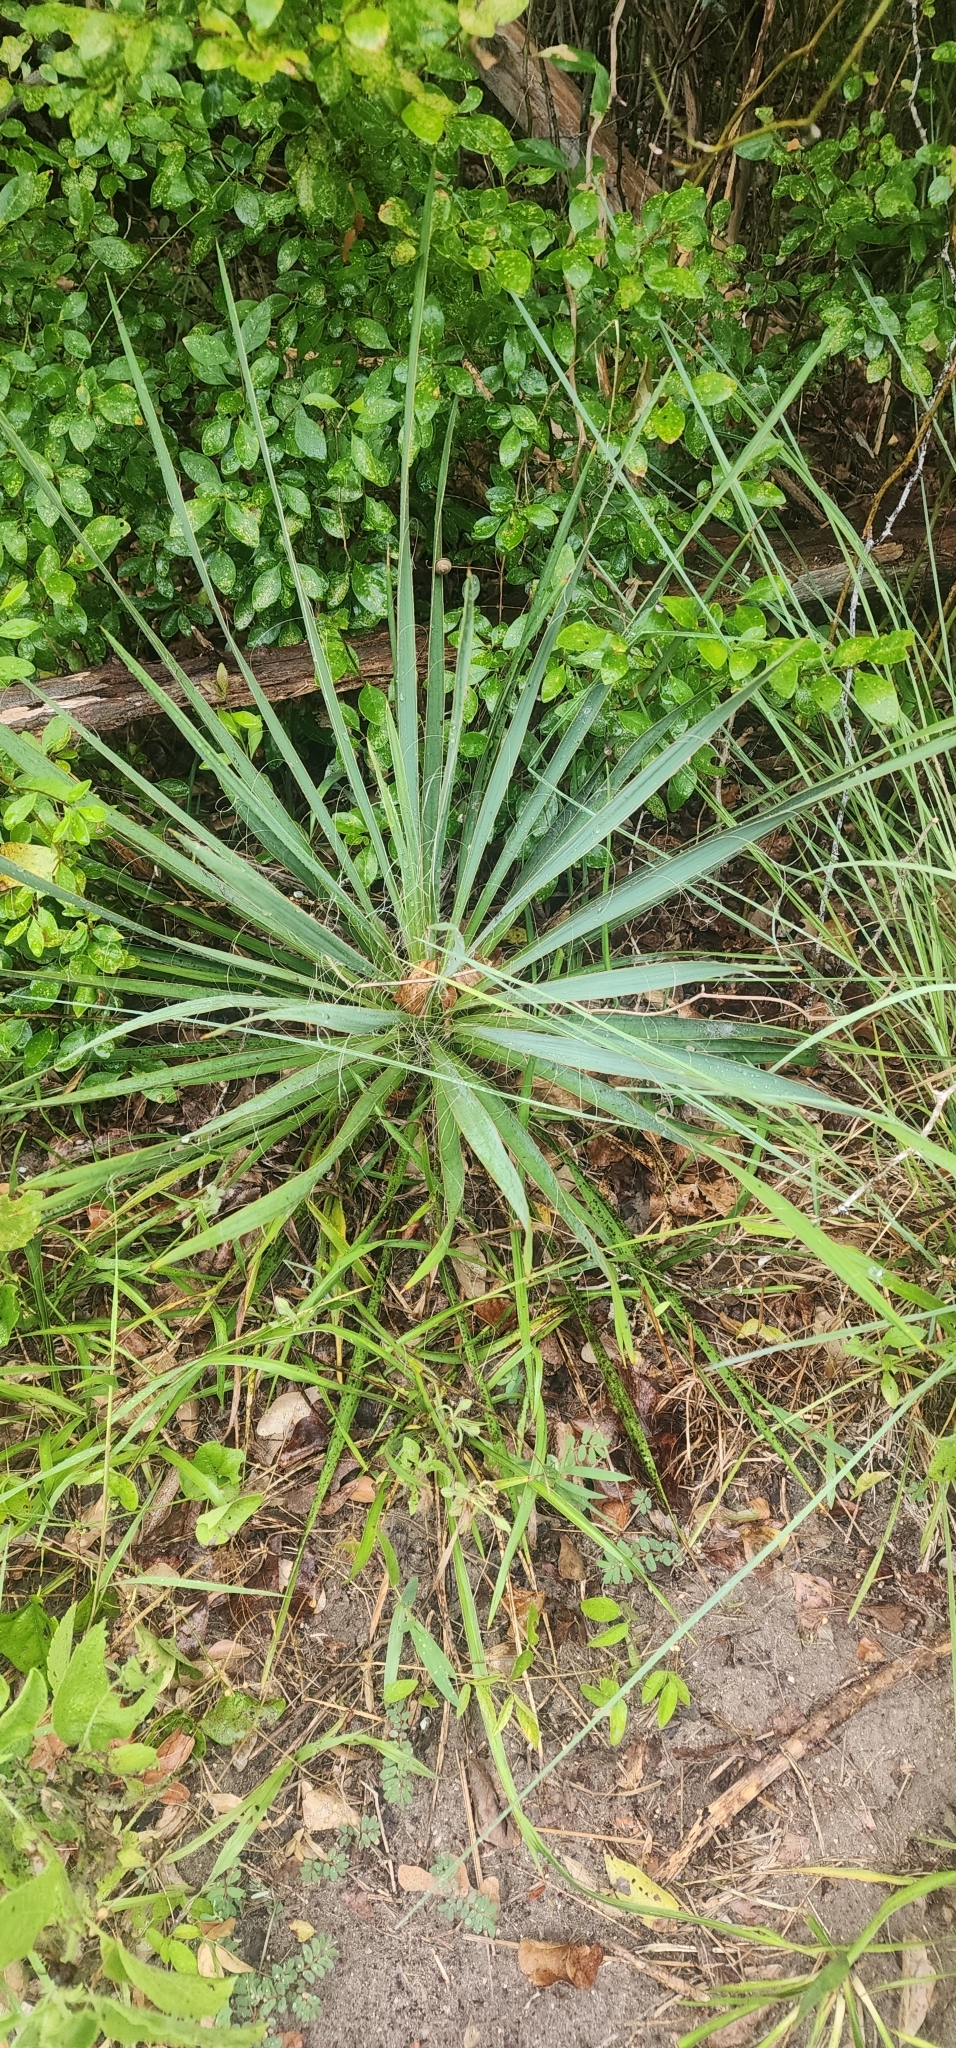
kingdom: Plantae
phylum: Tracheophyta
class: Liliopsida
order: Asparagales
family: Asparagaceae
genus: Yucca
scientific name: Yucca flaccida
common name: Adam's-needle
